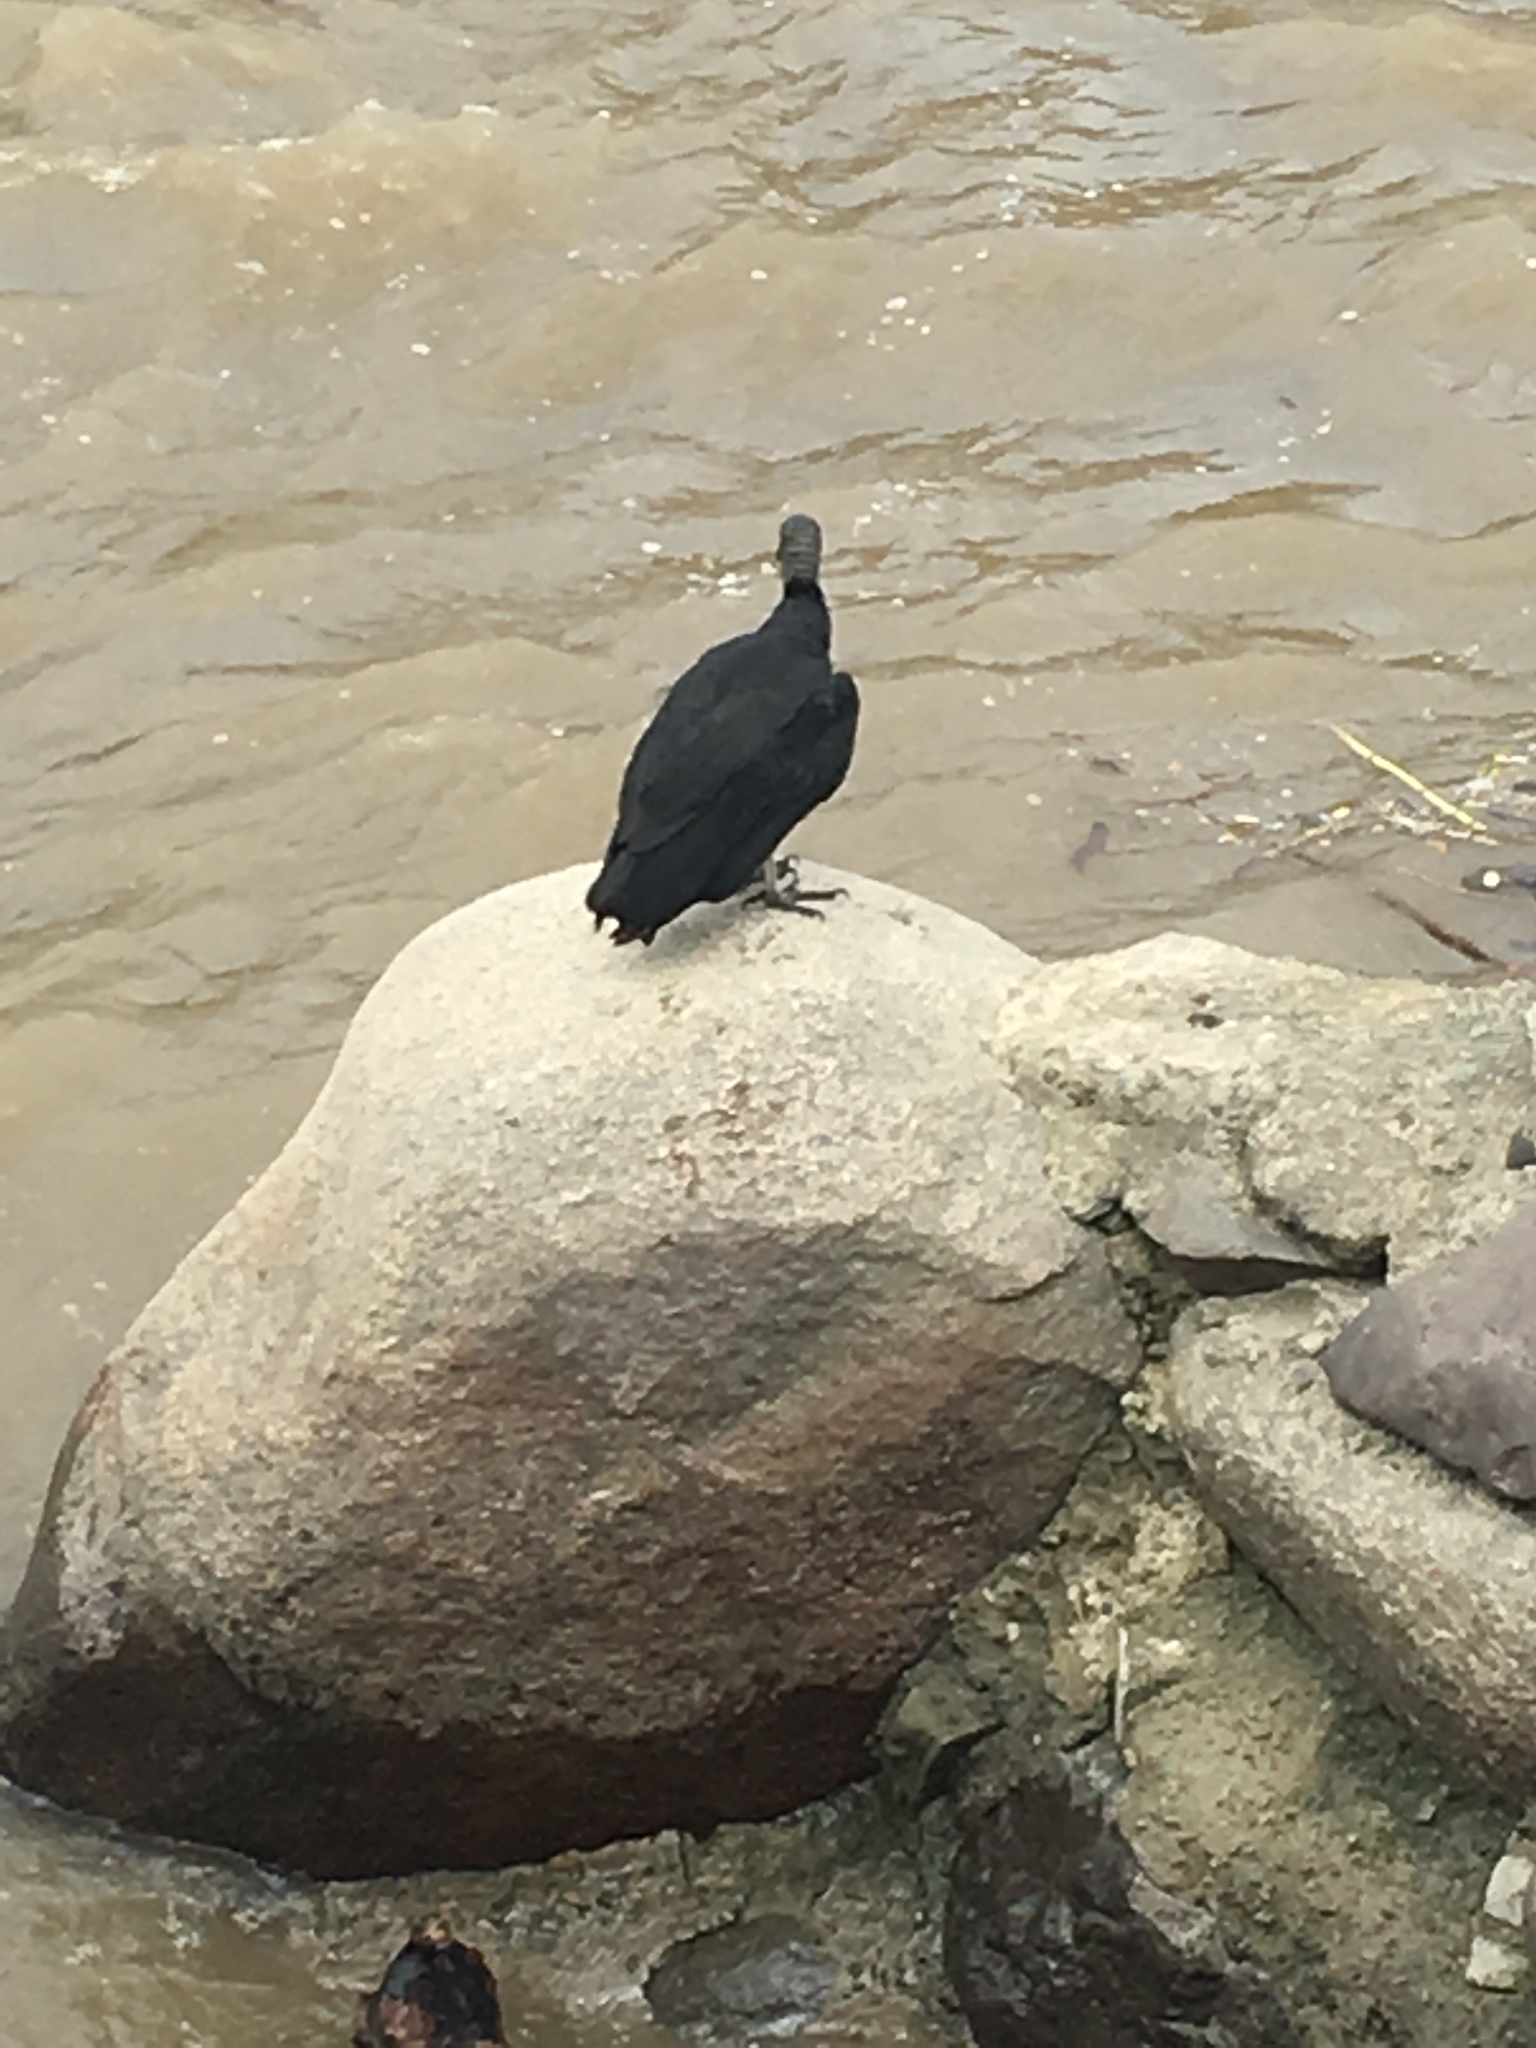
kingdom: Animalia
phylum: Chordata
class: Aves
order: Accipitriformes
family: Cathartidae
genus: Coragyps
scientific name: Coragyps atratus
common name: Black vulture
